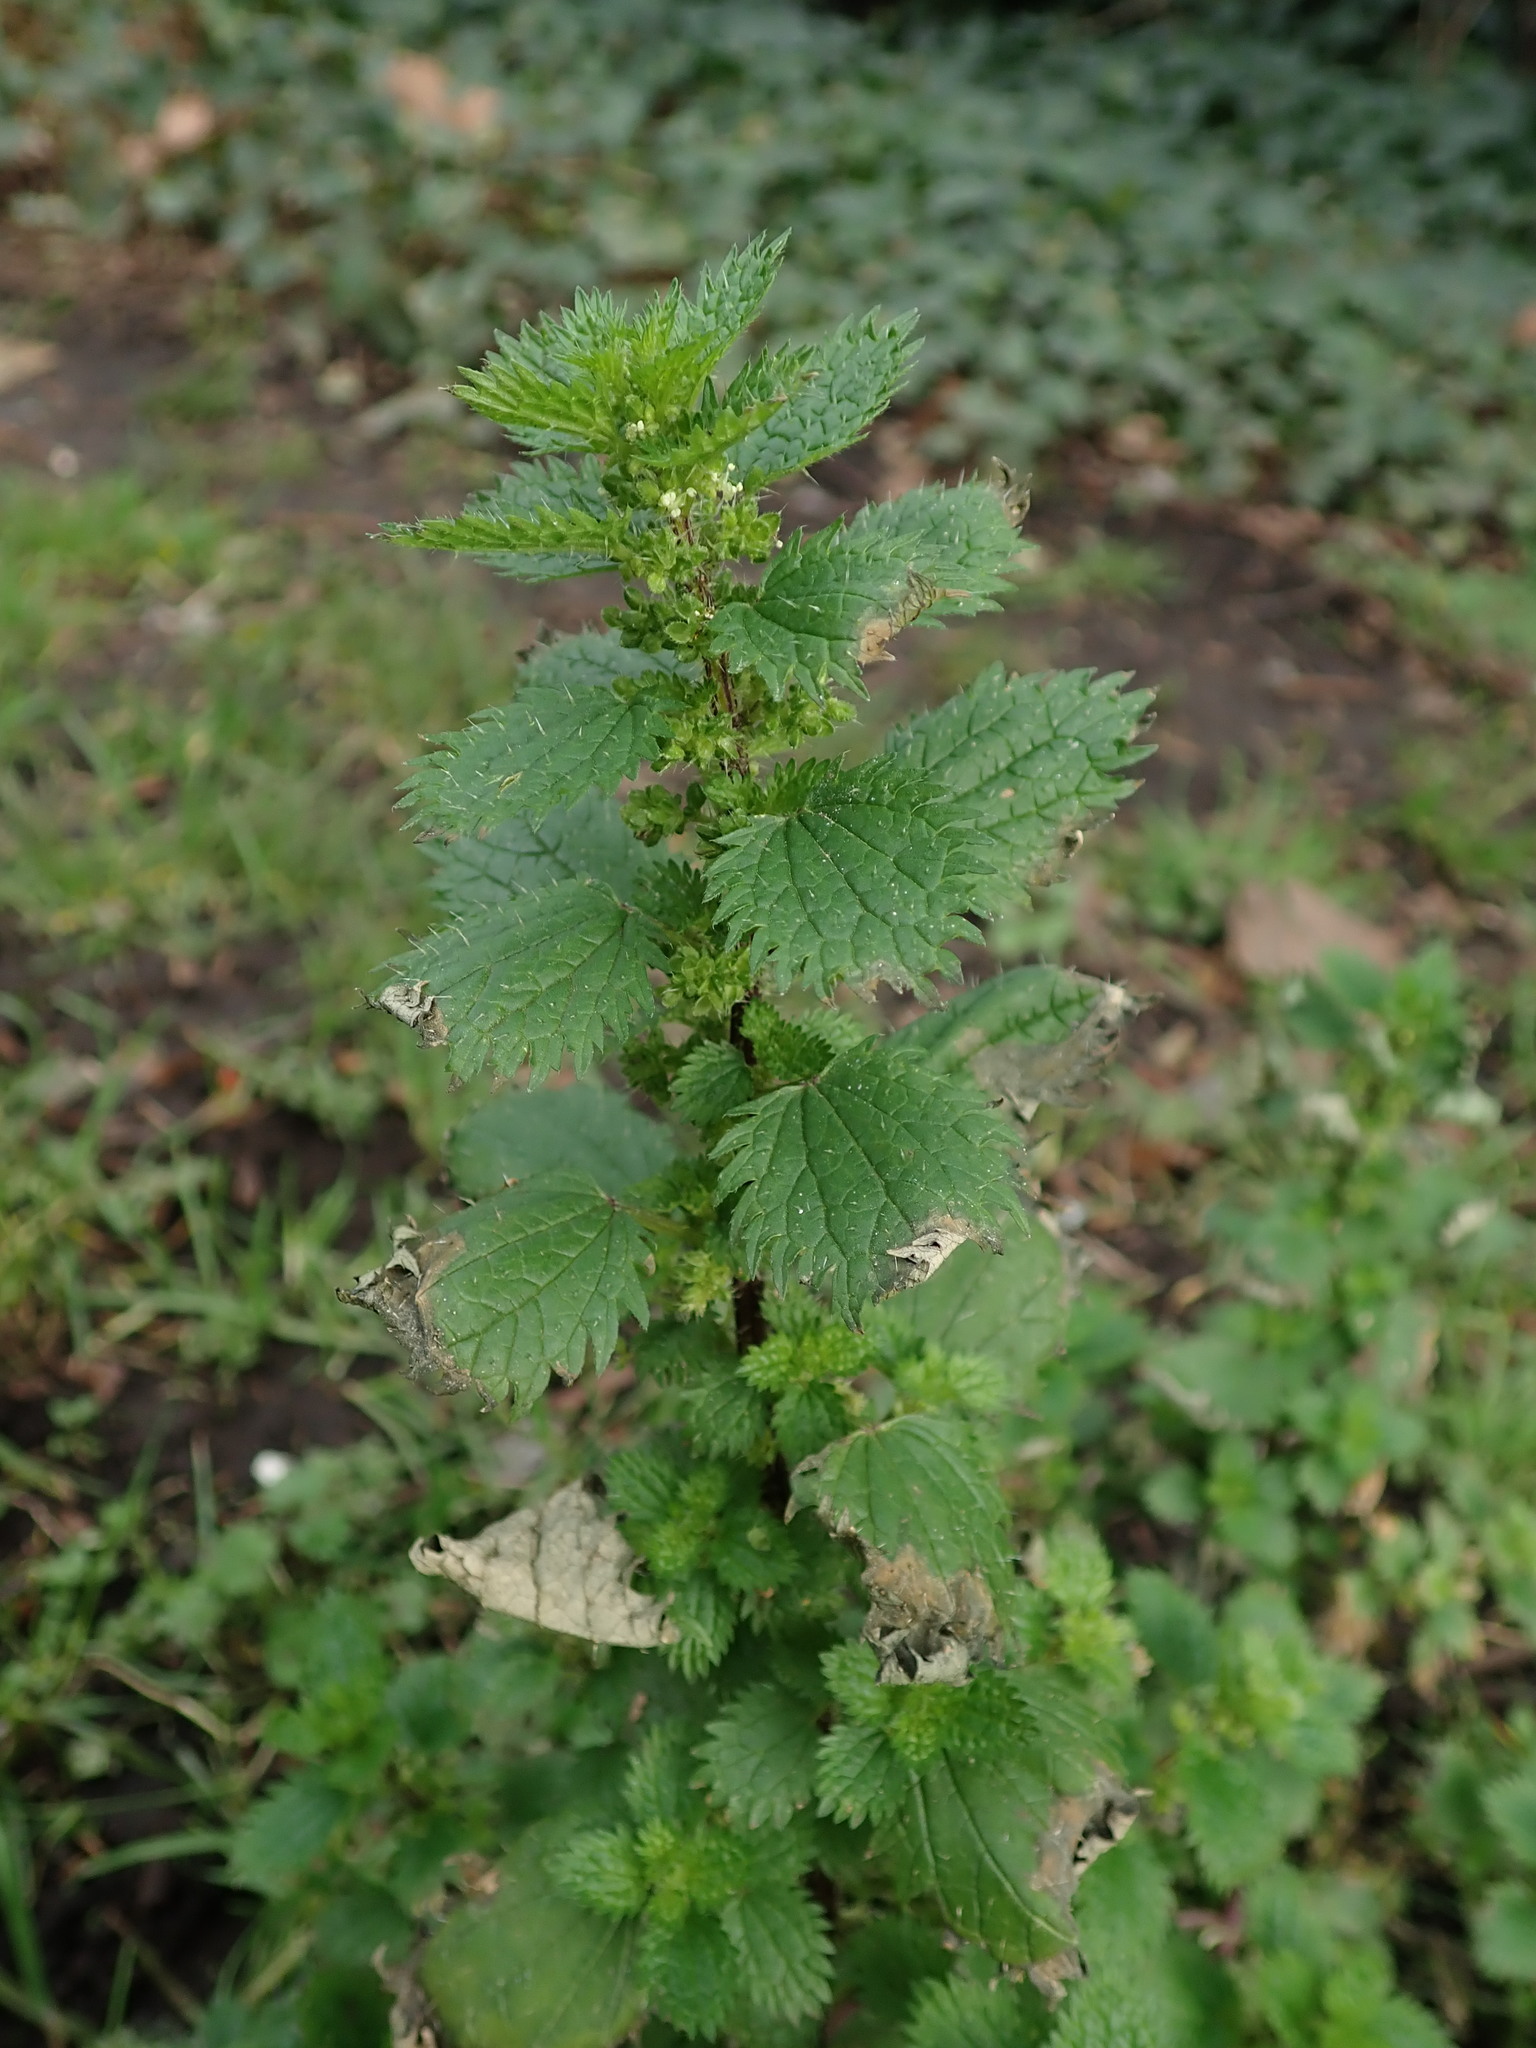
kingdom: Plantae
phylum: Tracheophyta
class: Magnoliopsida
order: Rosales
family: Urticaceae
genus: Urtica
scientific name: Urtica urens
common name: Dwarf nettle
